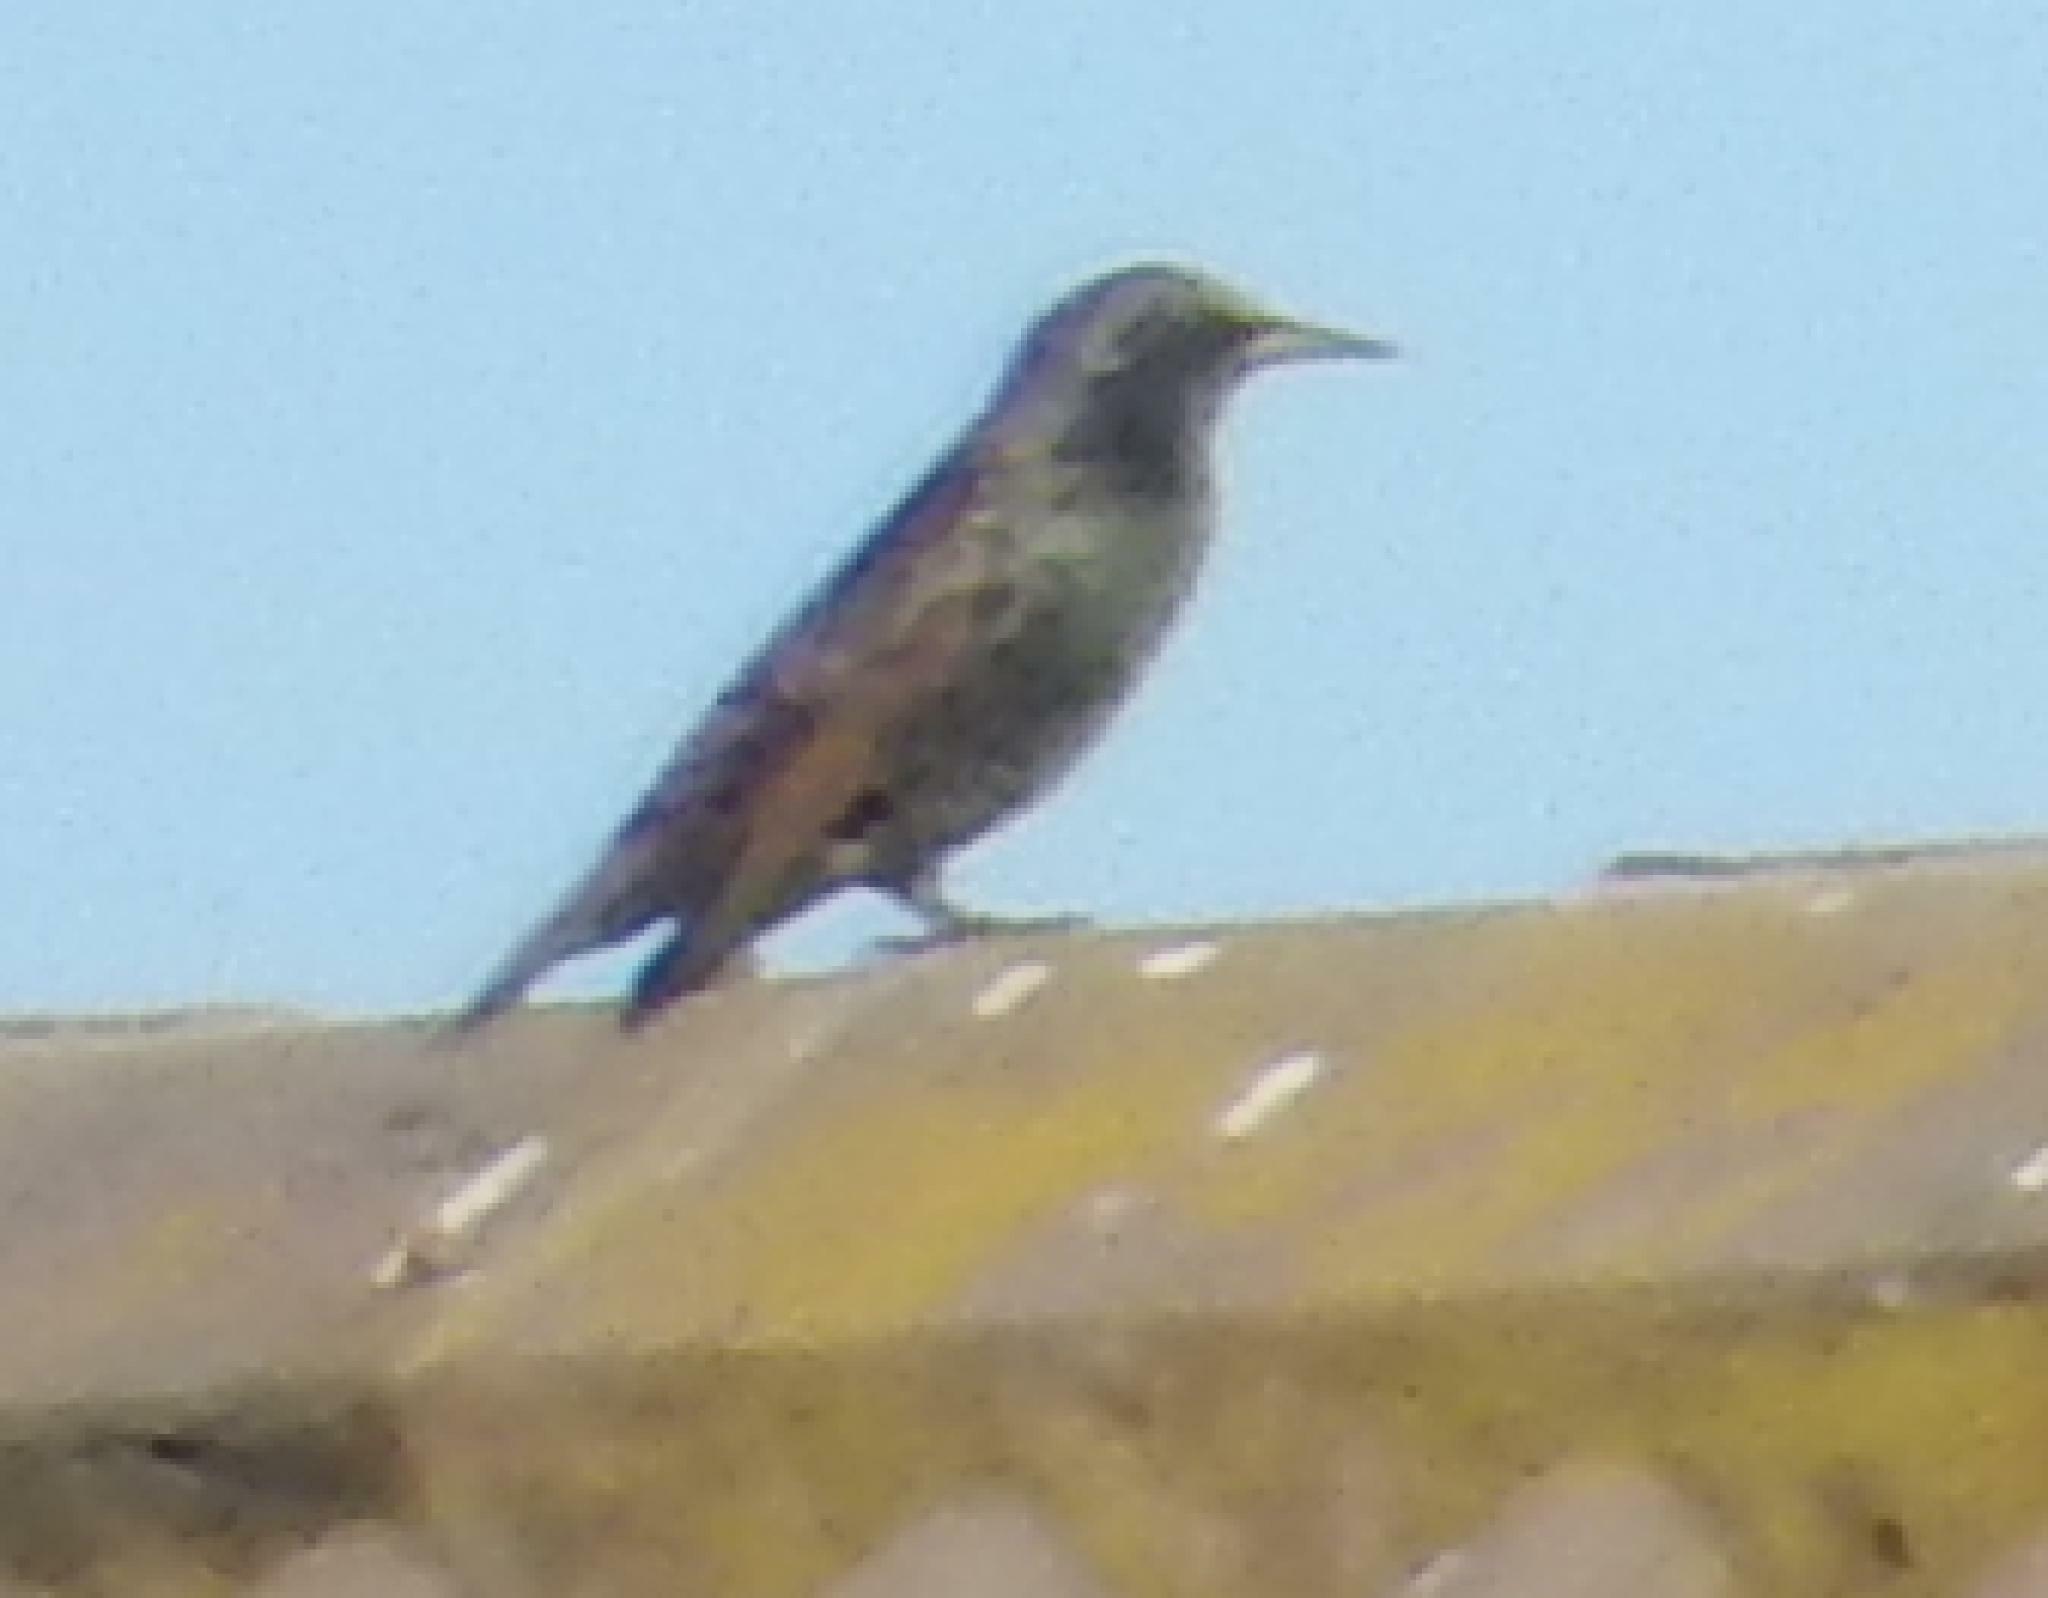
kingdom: Animalia
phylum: Chordata
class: Aves
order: Passeriformes
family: Sturnidae
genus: Sturnus
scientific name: Sturnus vulgaris
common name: Common starling
